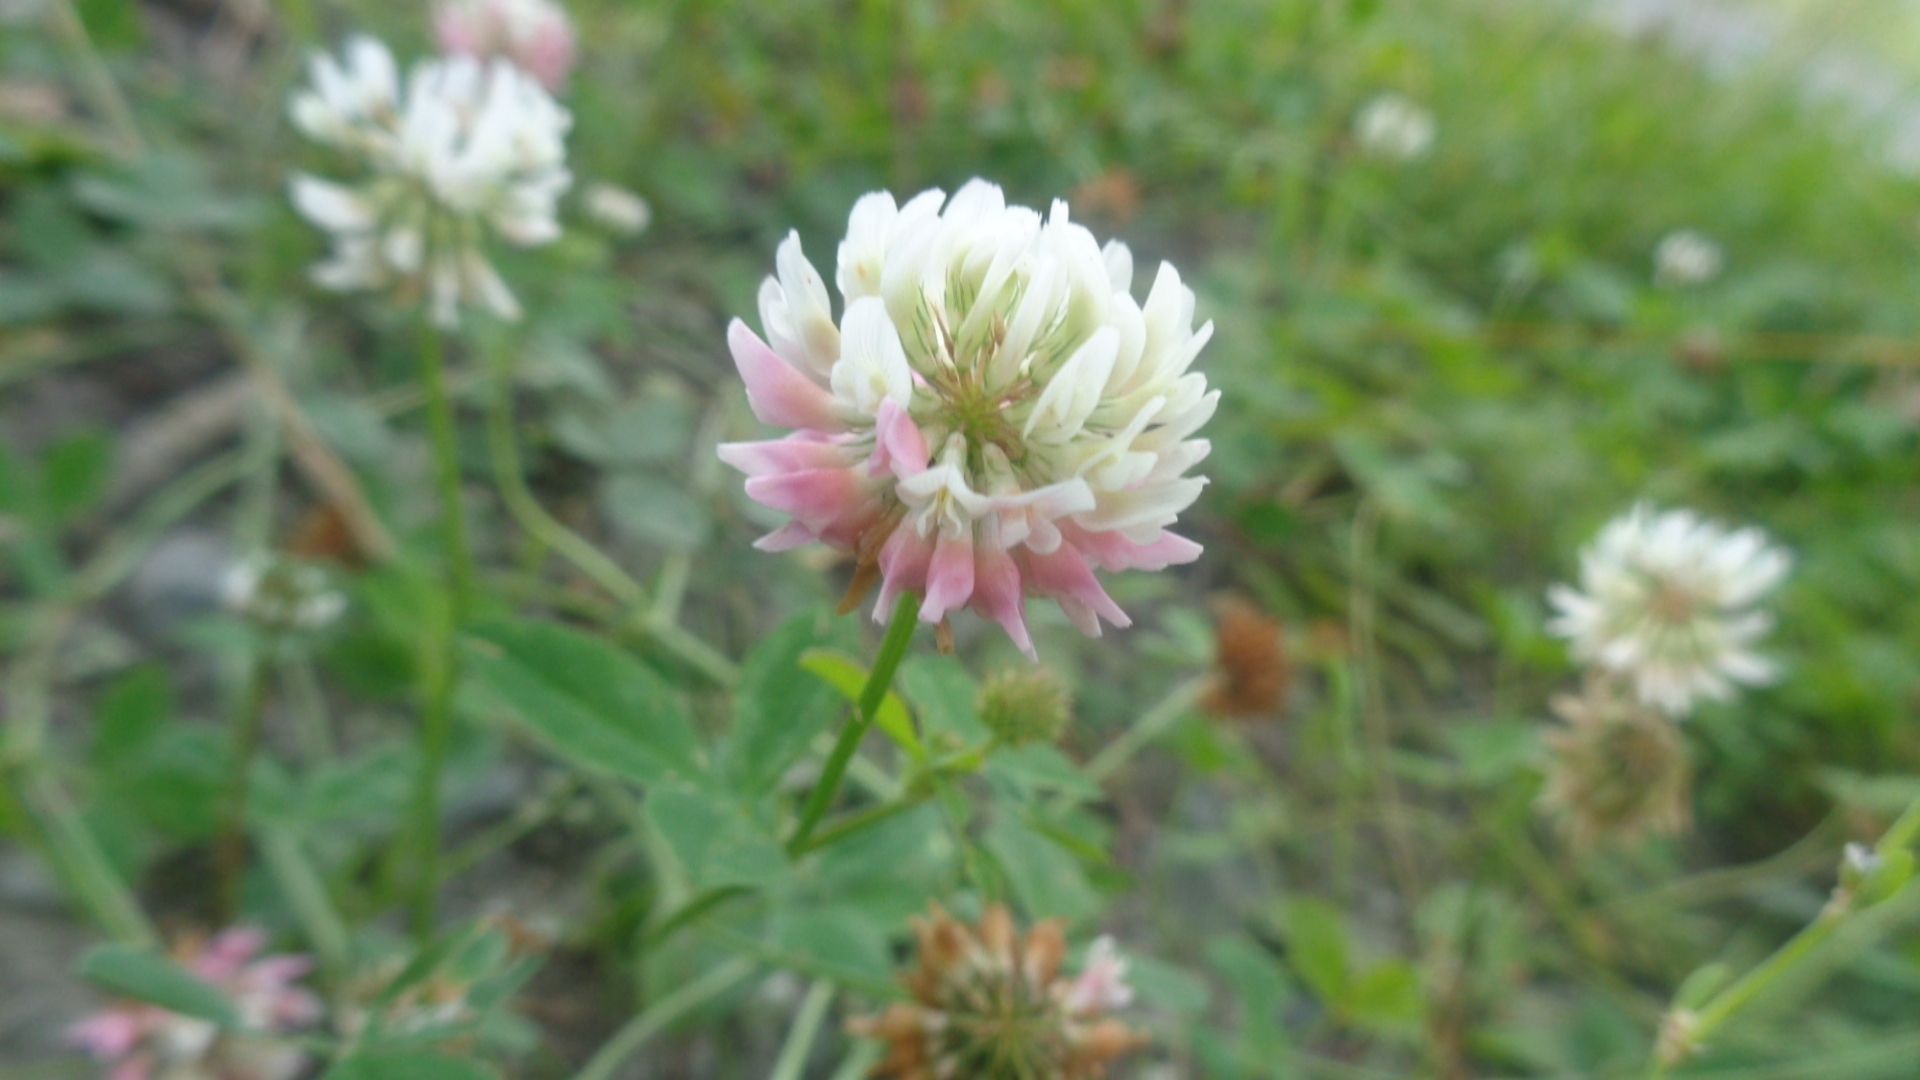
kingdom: Plantae
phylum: Tracheophyta
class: Magnoliopsida
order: Fabales
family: Fabaceae
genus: Trifolium
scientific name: Trifolium hybridum
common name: Alsike clover
